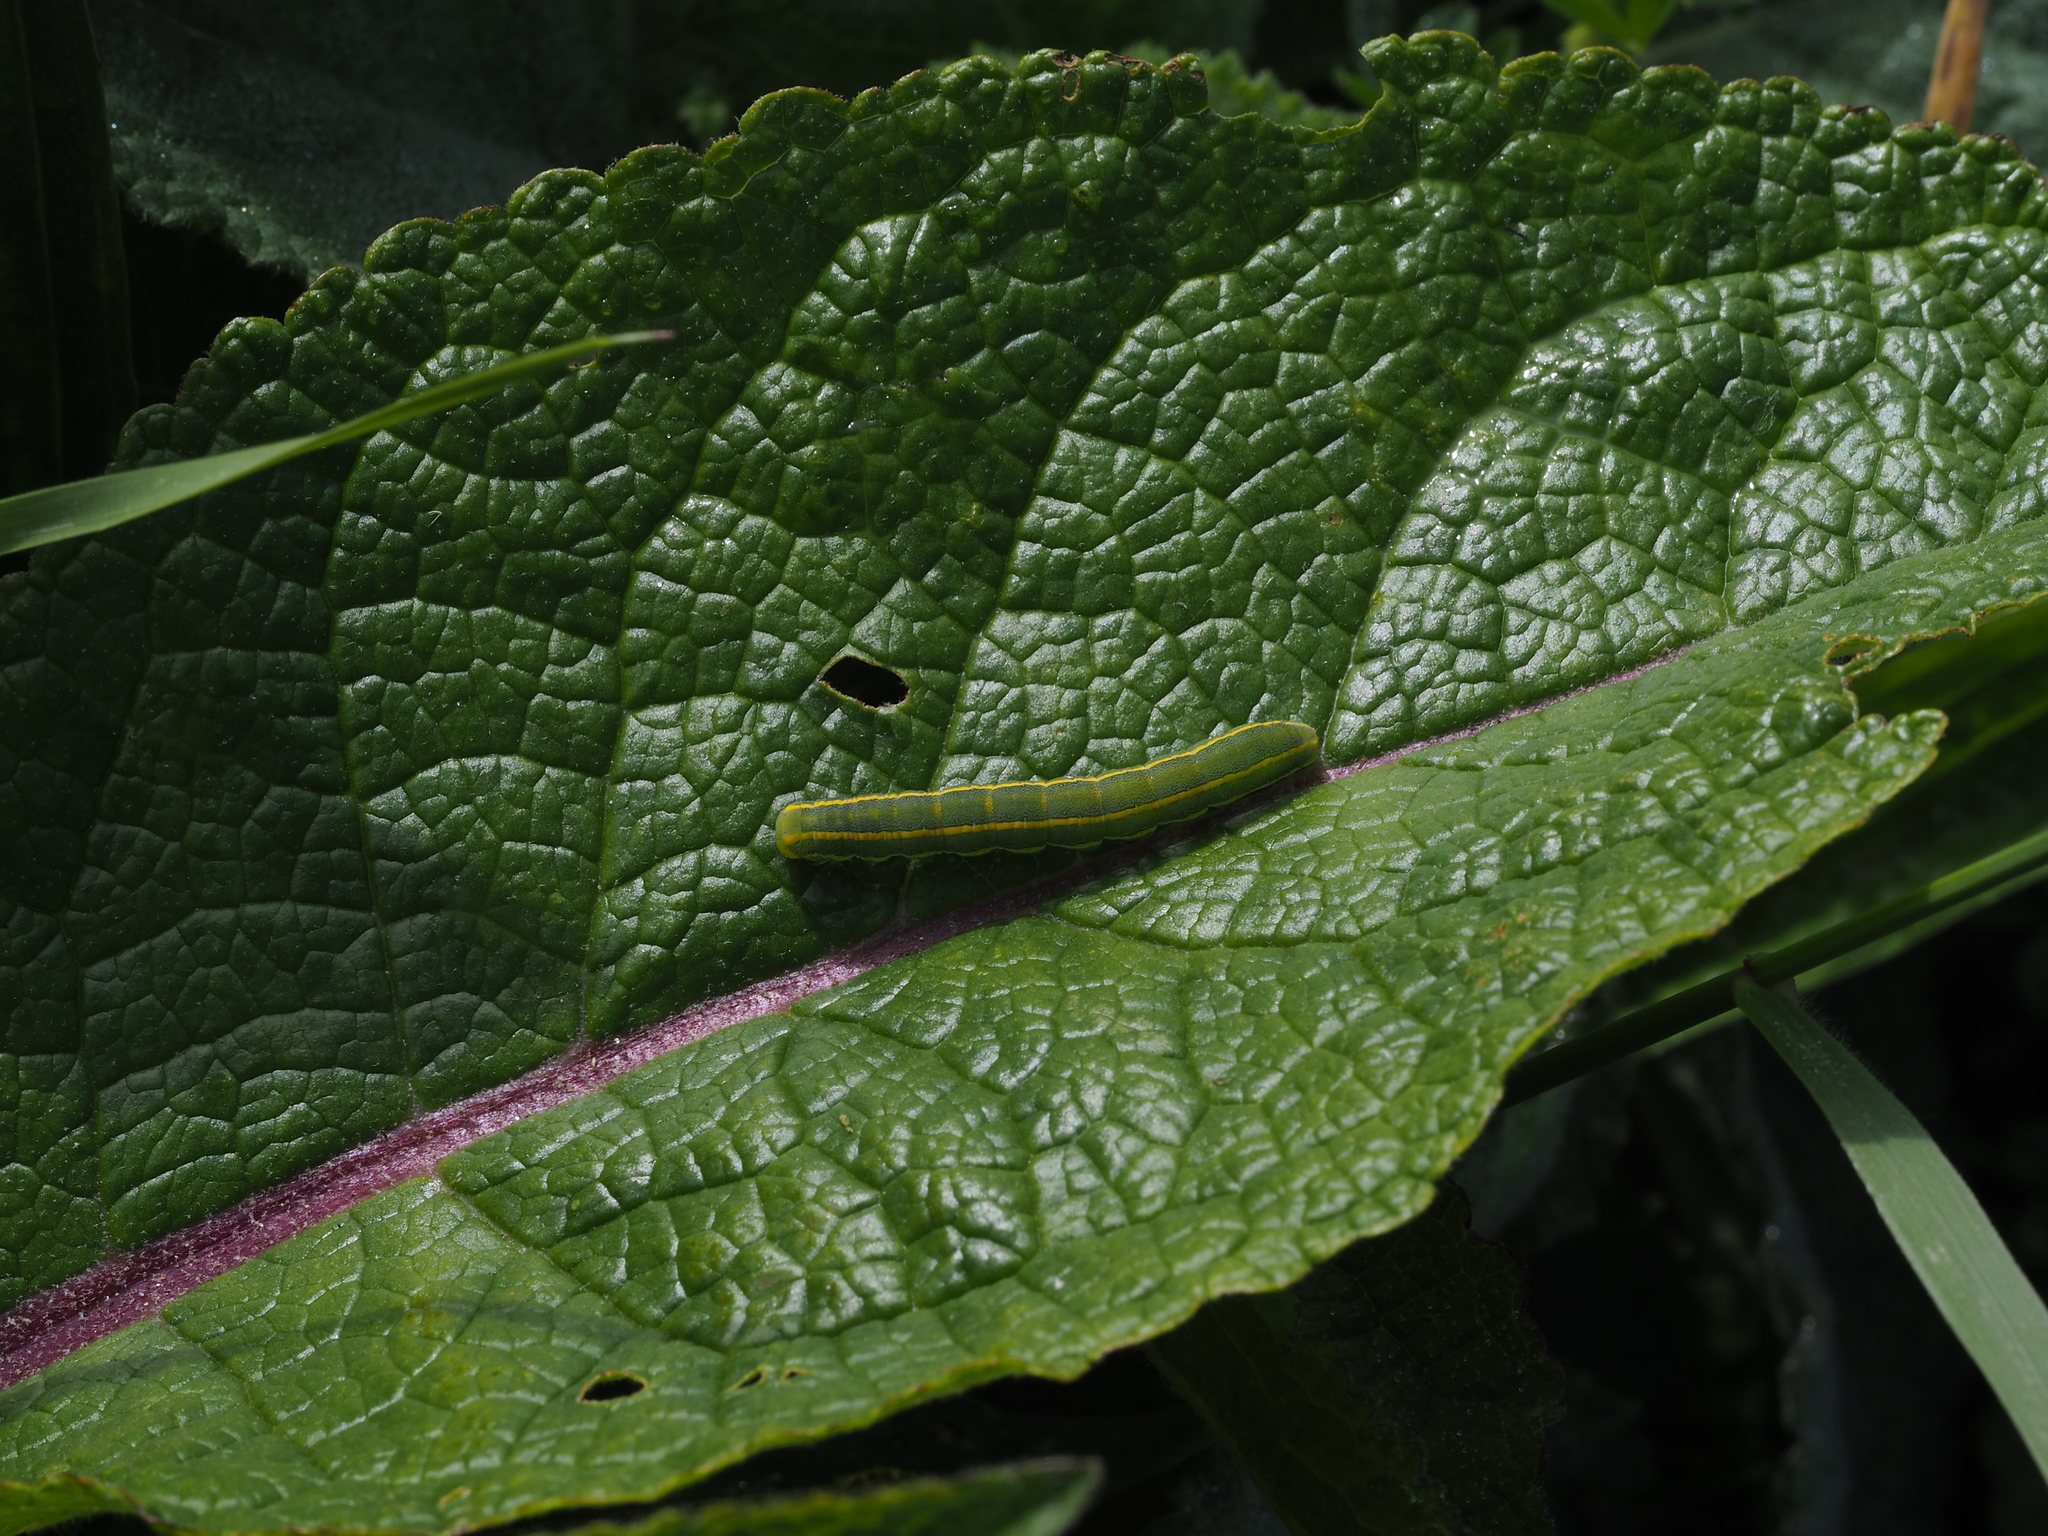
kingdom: Animalia
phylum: Arthropoda
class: Insecta
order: Lepidoptera
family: Noctuidae
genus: Xylena
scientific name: Xylena exsoleta
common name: Sword-grass
